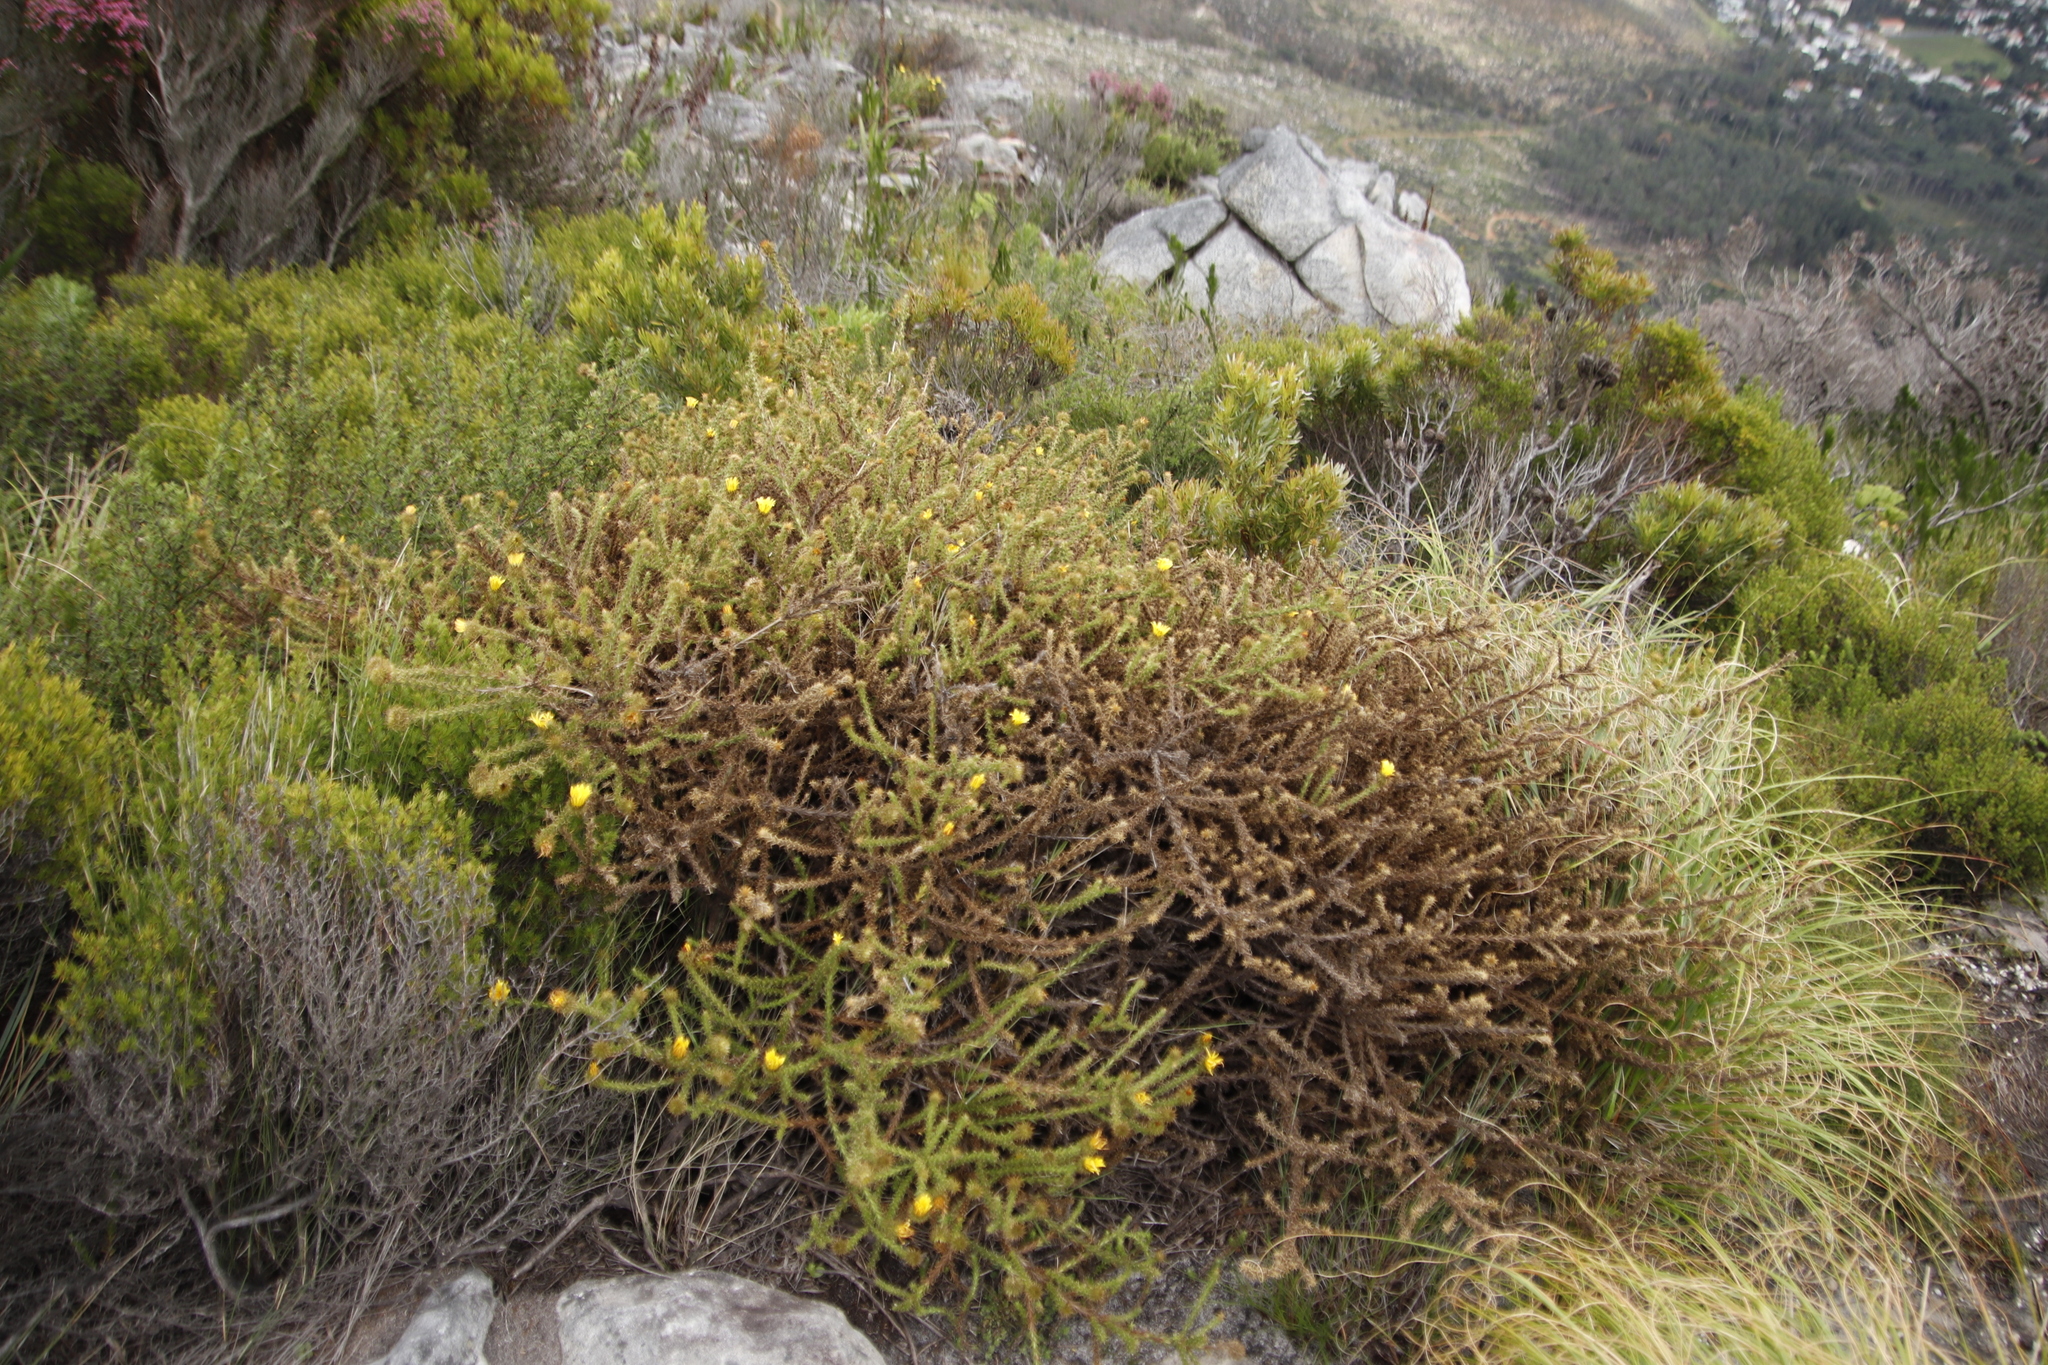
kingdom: Plantae
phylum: Tracheophyta
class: Magnoliopsida
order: Asterales
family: Asteraceae
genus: Cullumia
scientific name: Cullumia reticulata
